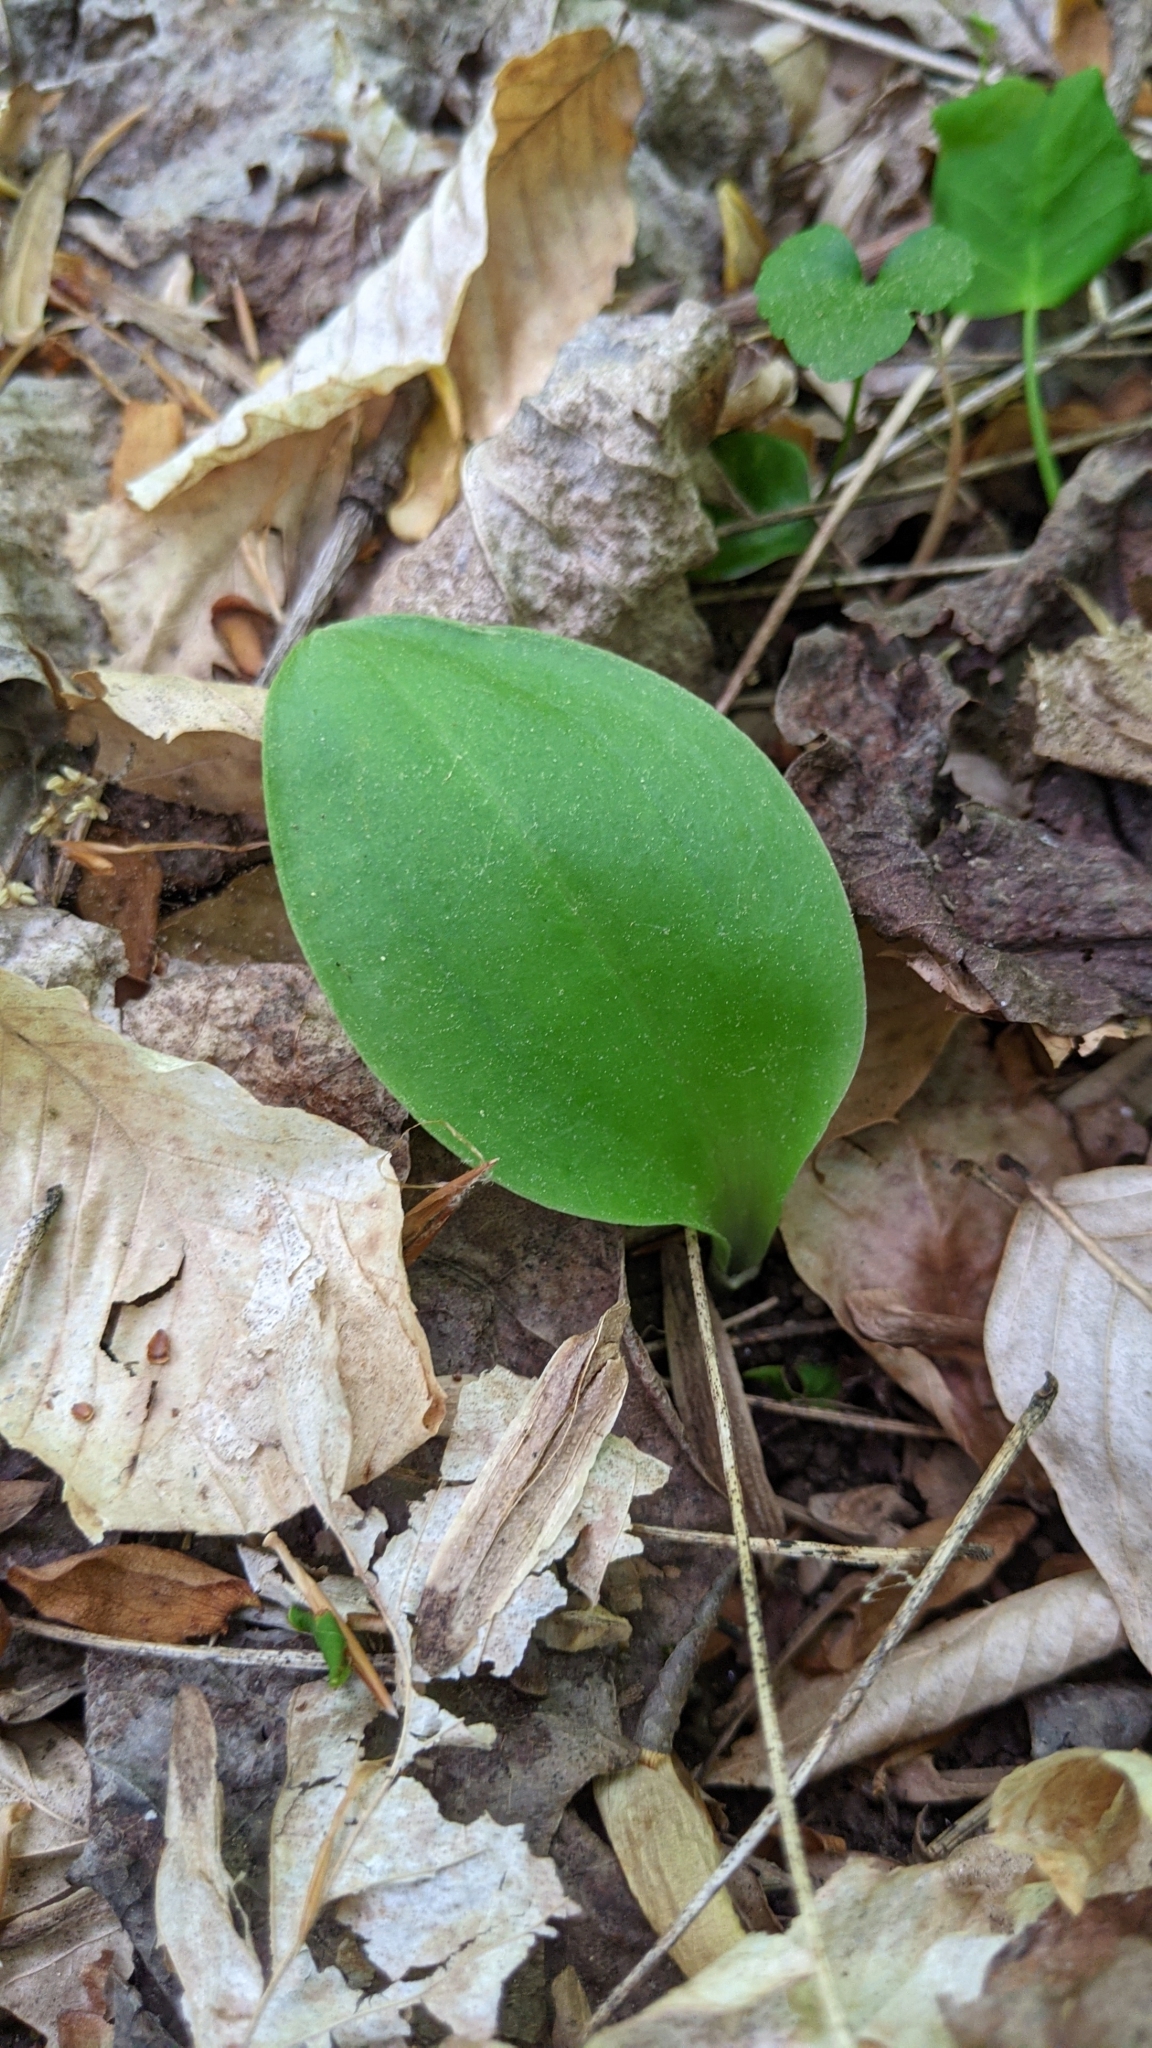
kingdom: Plantae
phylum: Tracheophyta
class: Liliopsida
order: Asparagales
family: Orchidaceae
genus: Galearis
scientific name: Galearis spectabilis
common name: Purple-hooded orchis
